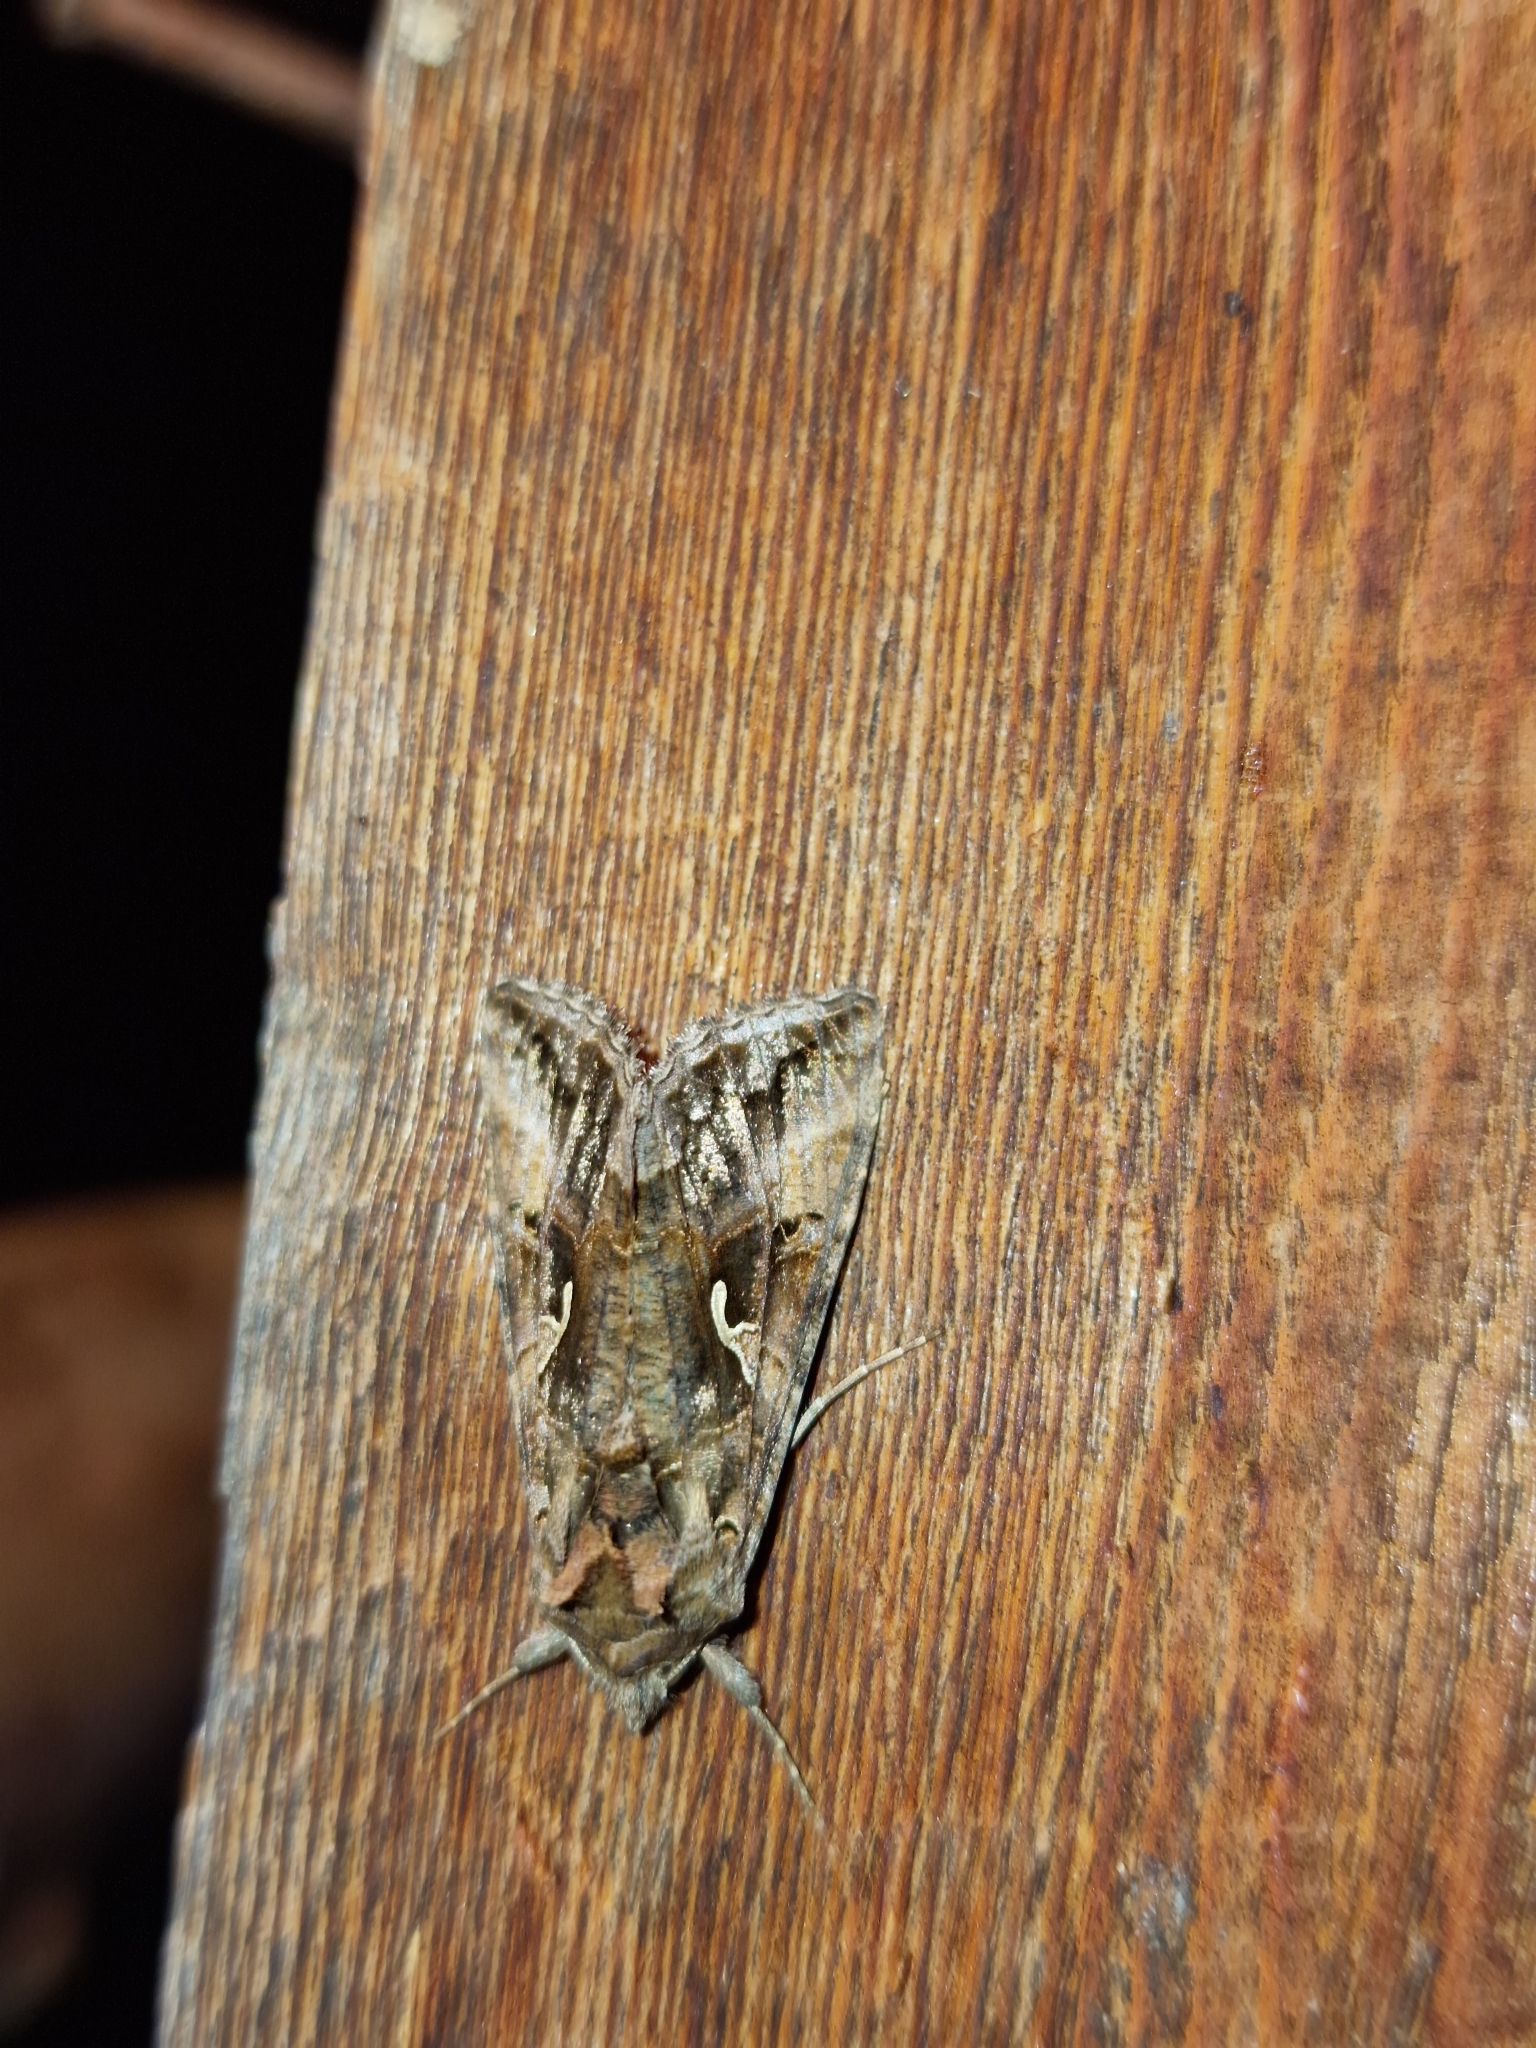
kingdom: Animalia
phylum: Arthropoda
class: Insecta
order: Lepidoptera
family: Noctuidae
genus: Autographa
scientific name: Autographa mandarina
